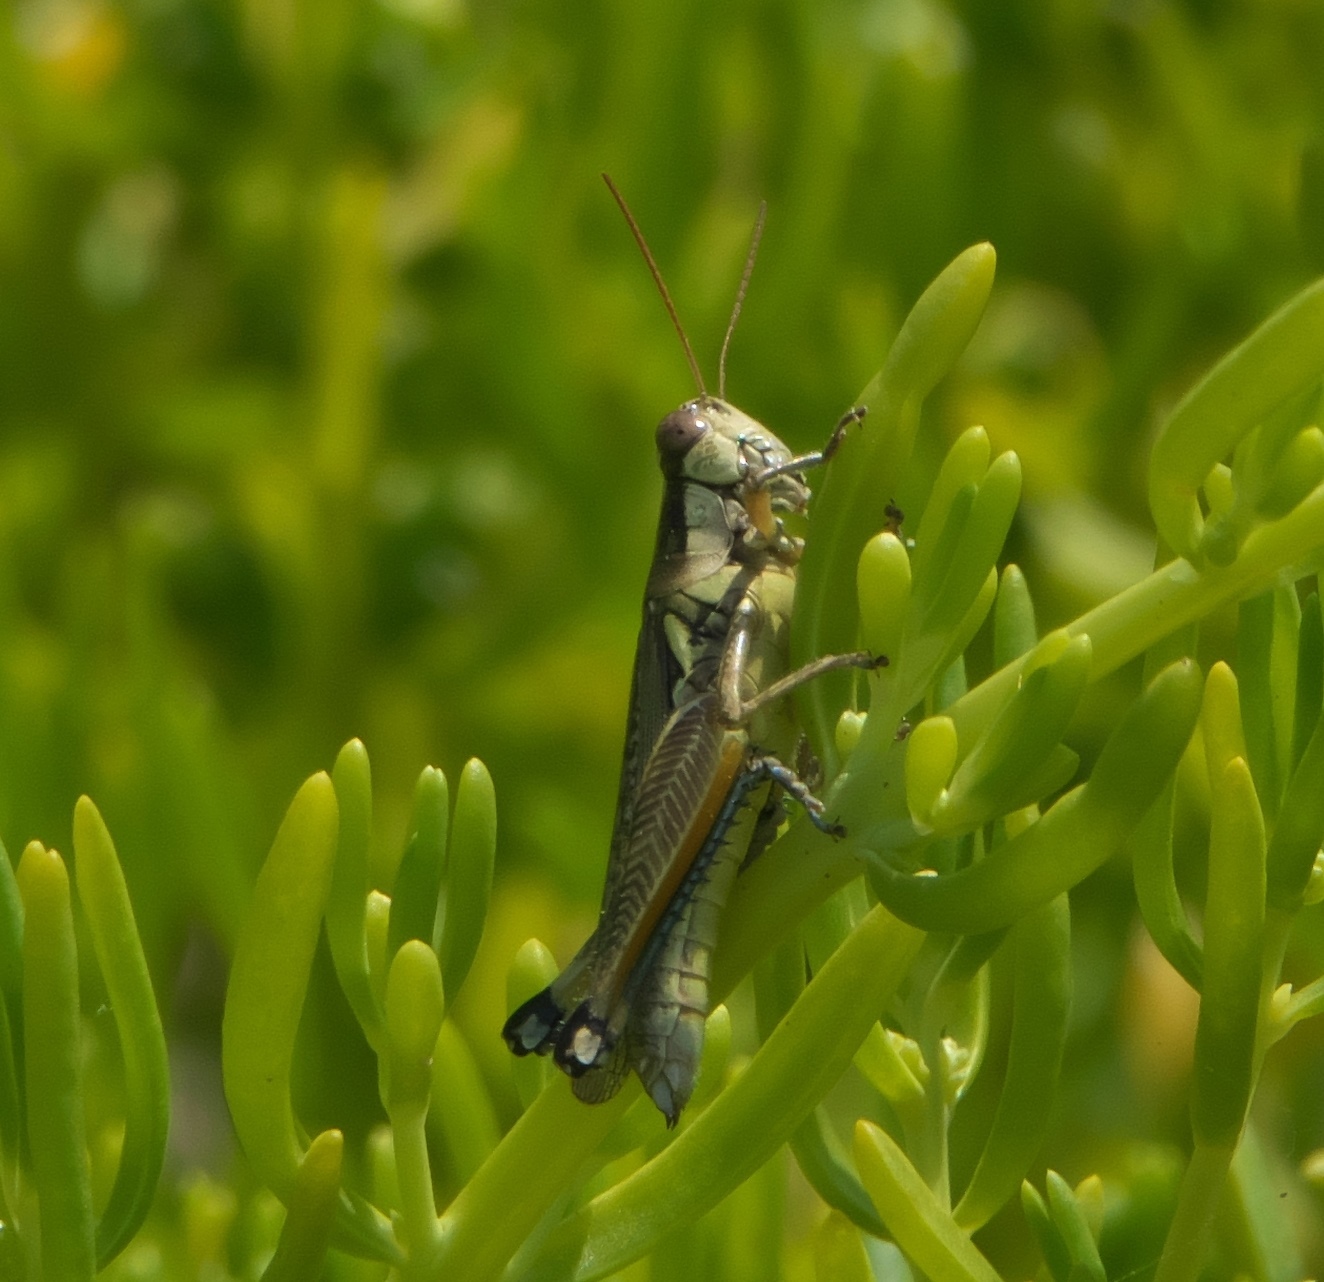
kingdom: Animalia
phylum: Arthropoda
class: Insecta
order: Orthoptera
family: Acrididae
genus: Paroxya
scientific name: Paroxya atlantica
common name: Atlantic grasshopper
